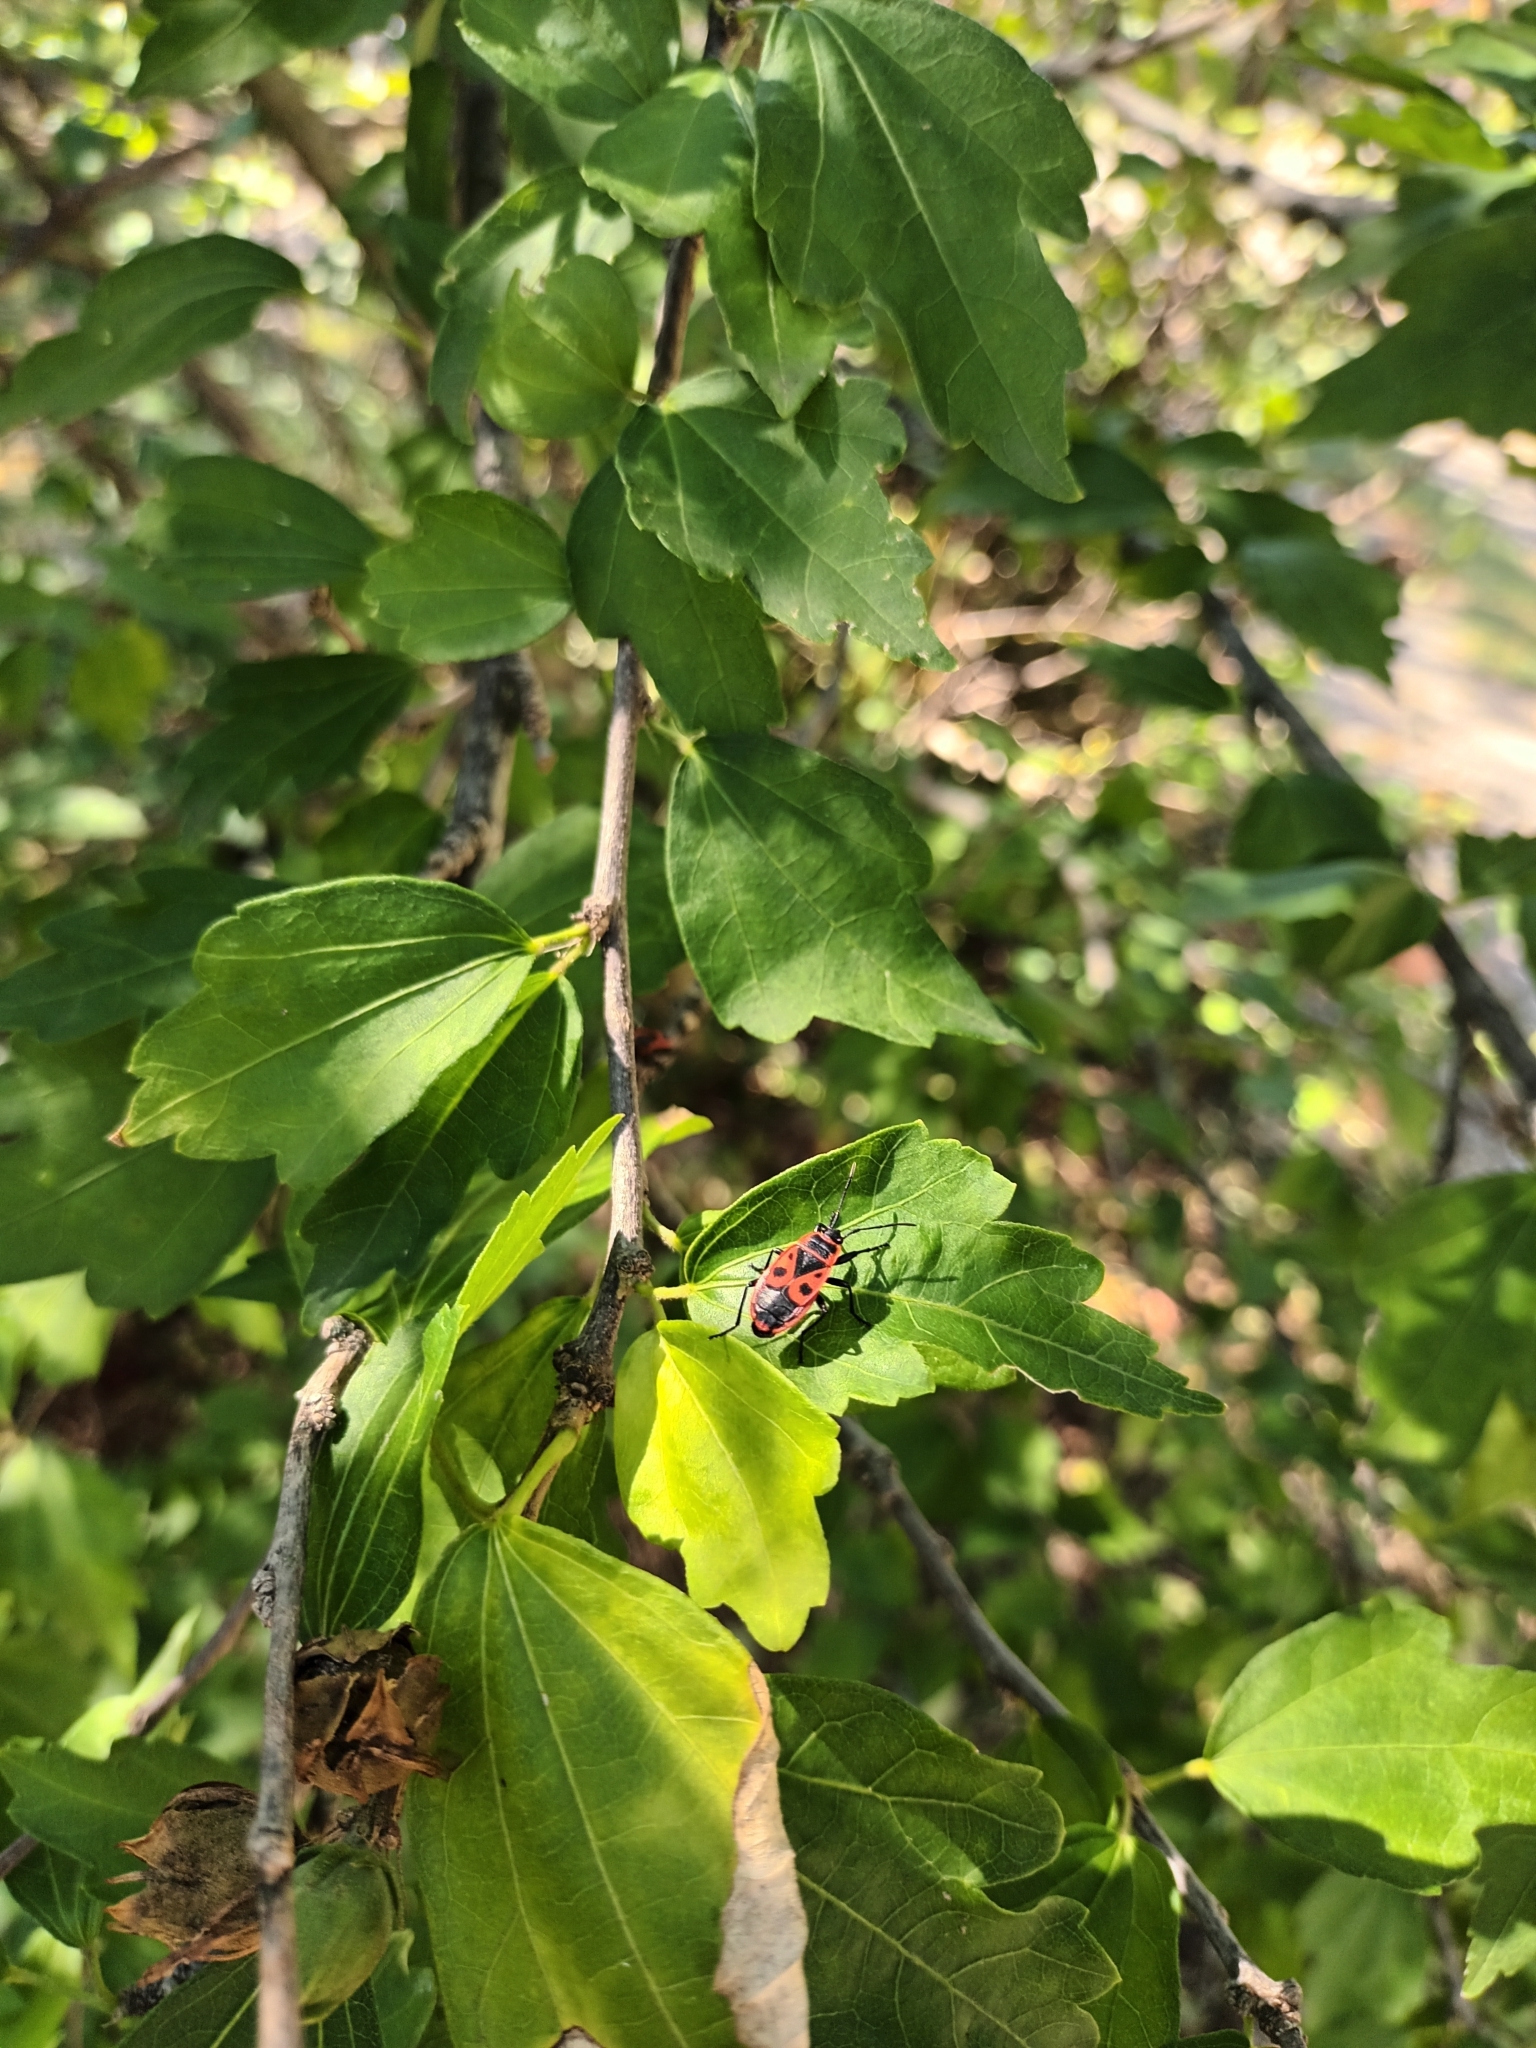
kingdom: Animalia
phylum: Arthropoda
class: Insecta
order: Hemiptera
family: Pyrrhocoridae
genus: Pyrrhocoris
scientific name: Pyrrhocoris apterus
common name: Firebug
